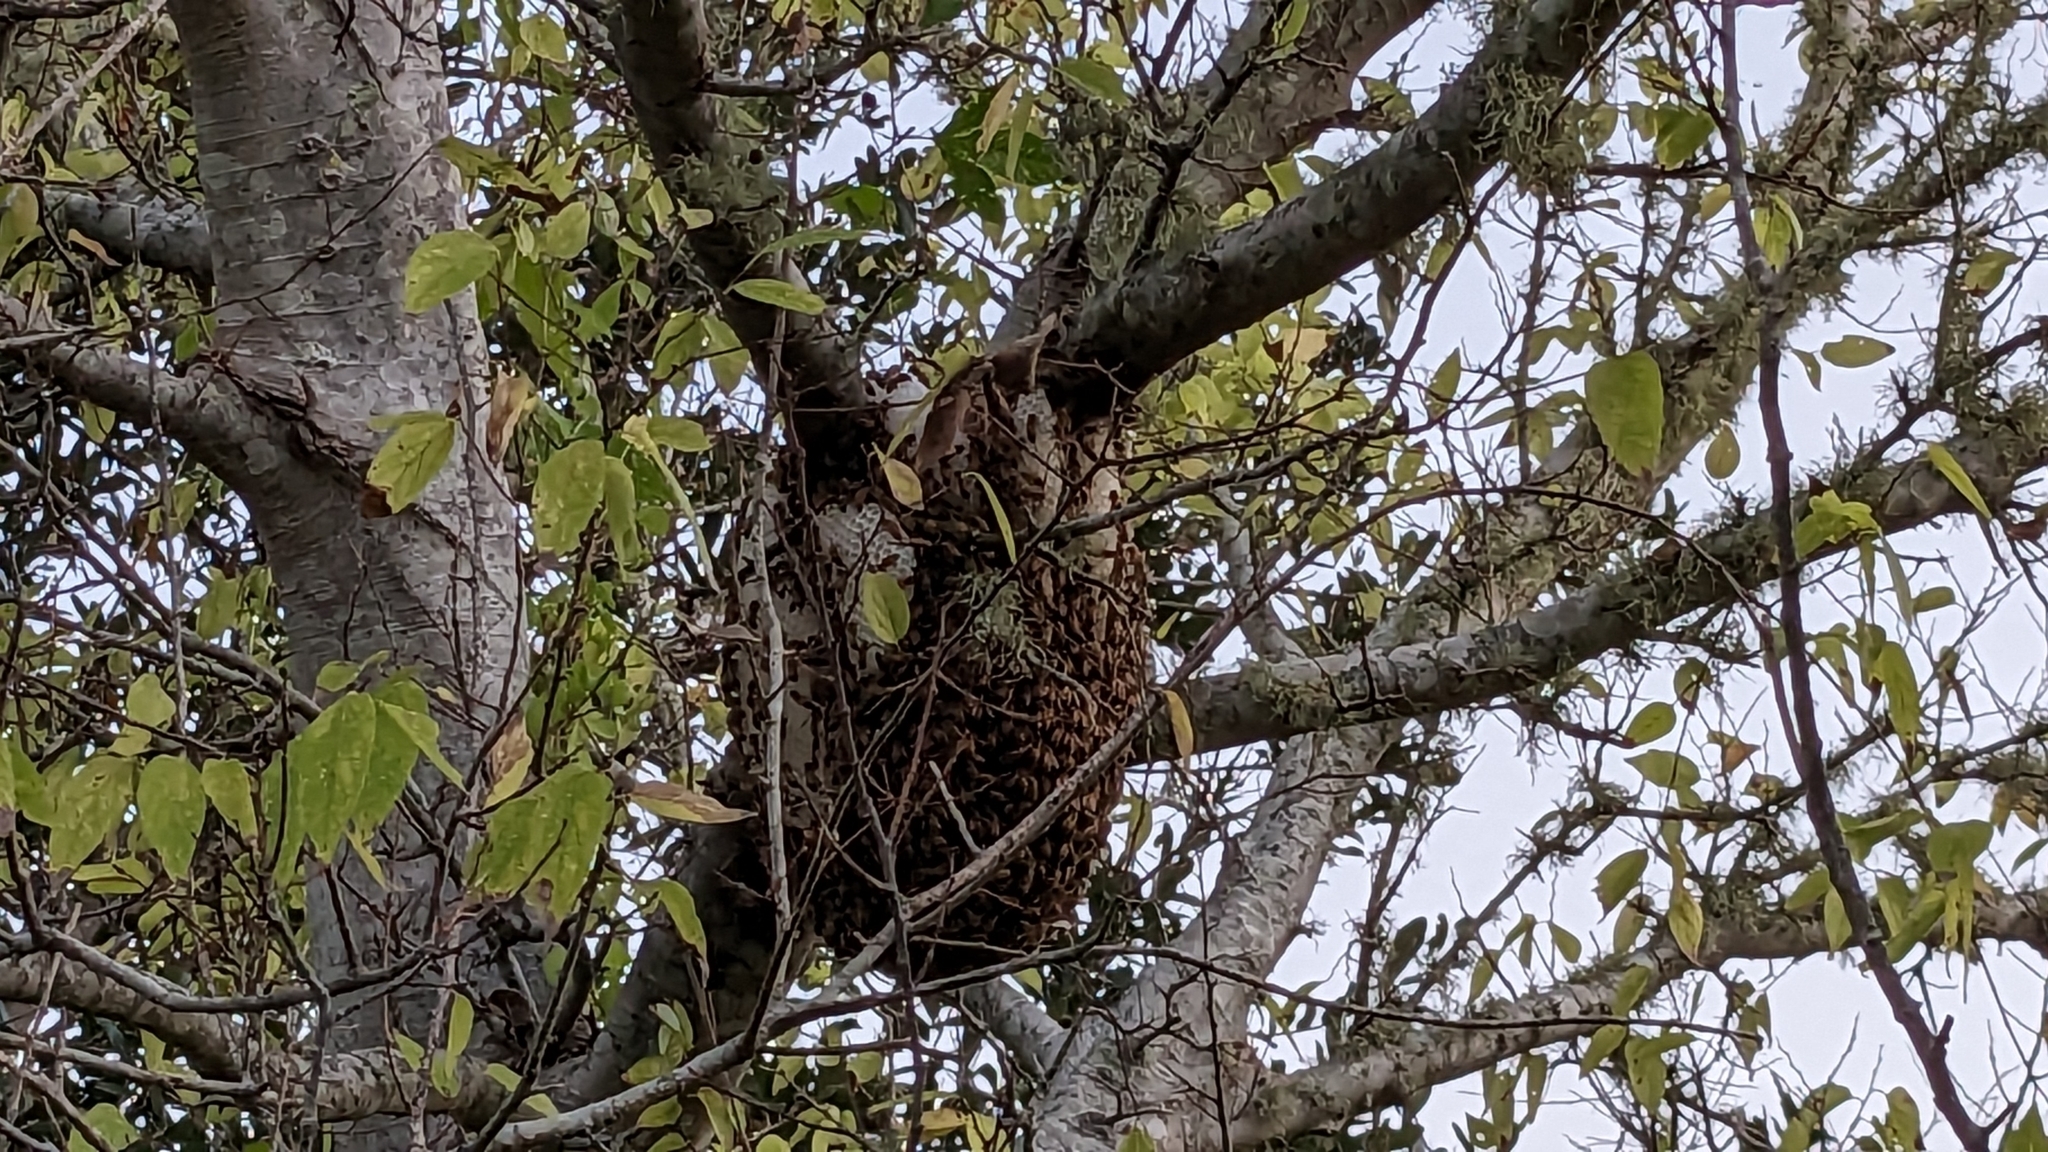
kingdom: Animalia
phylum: Arthropoda
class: Insecta
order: Hymenoptera
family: Apidae
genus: Apis
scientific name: Apis mellifera
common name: Honey bee
